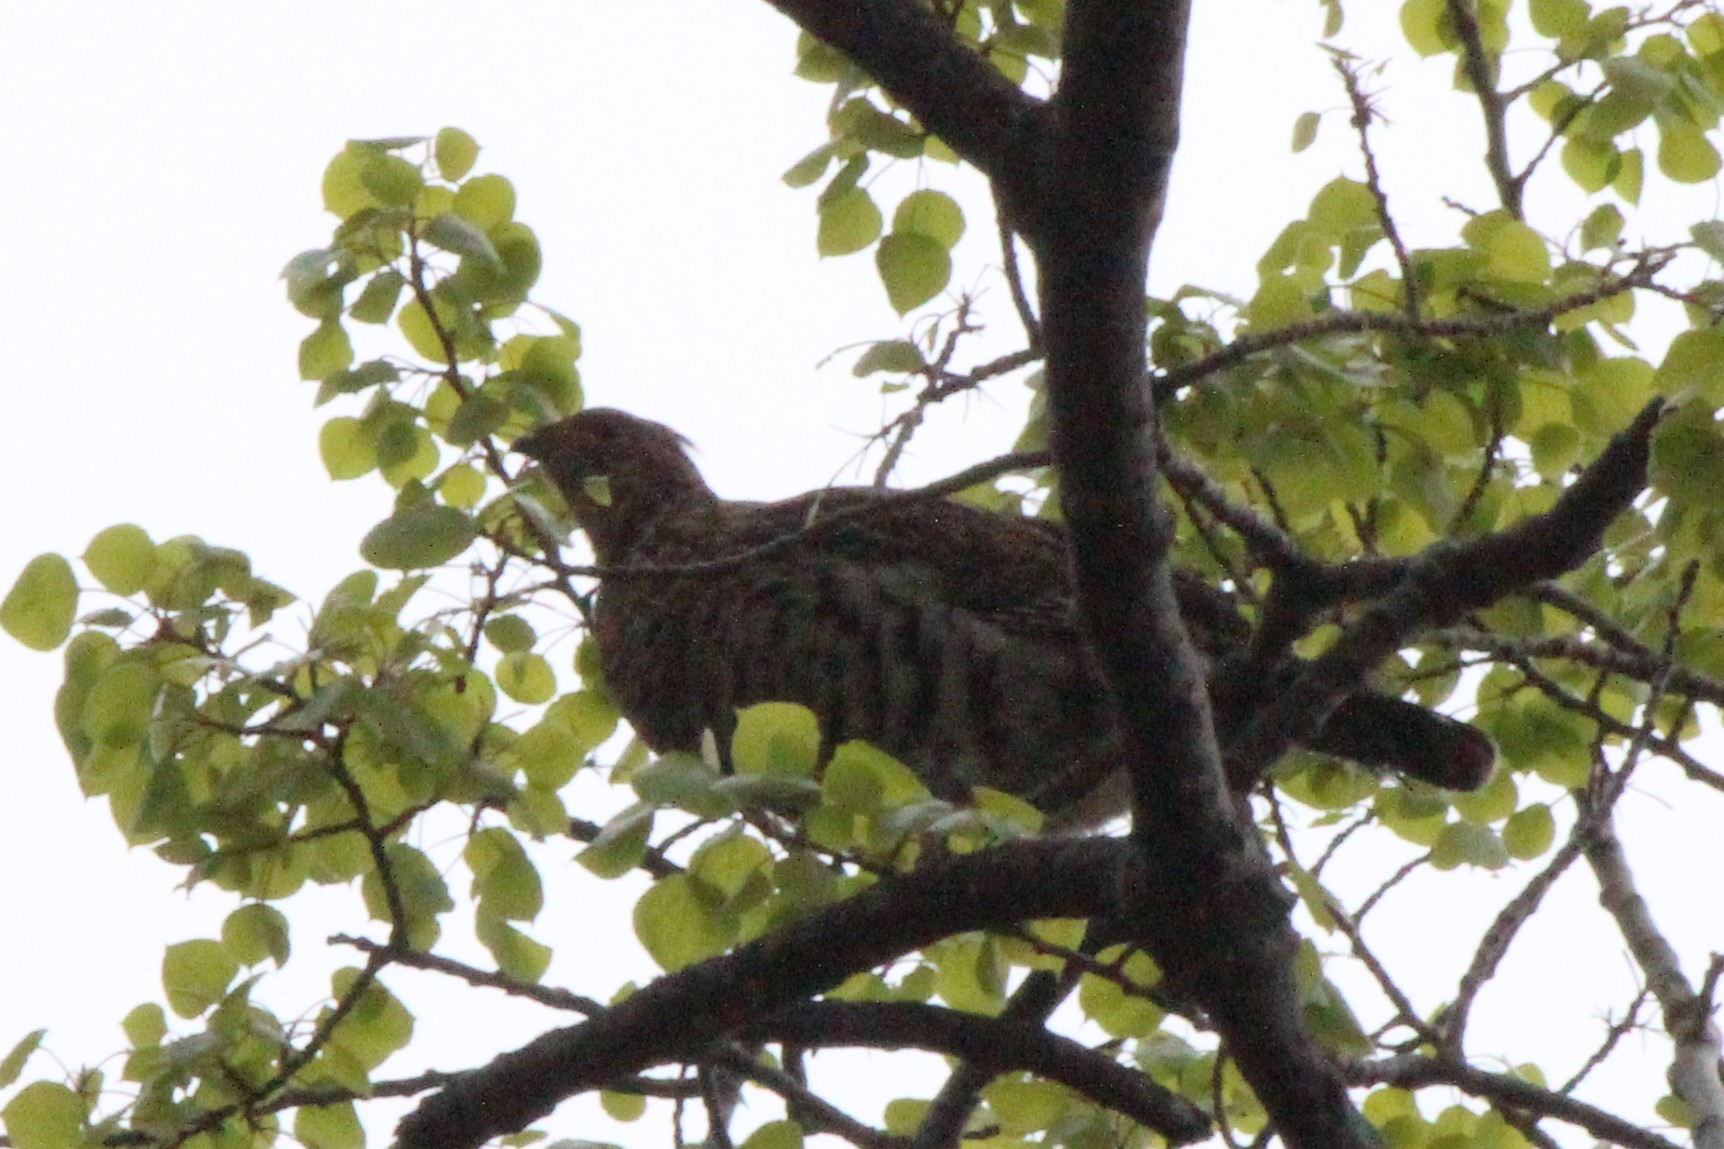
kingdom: Animalia
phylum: Chordata
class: Aves
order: Galliformes
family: Phasianidae
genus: Bonasa
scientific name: Bonasa umbellus
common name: Ruffed grouse
